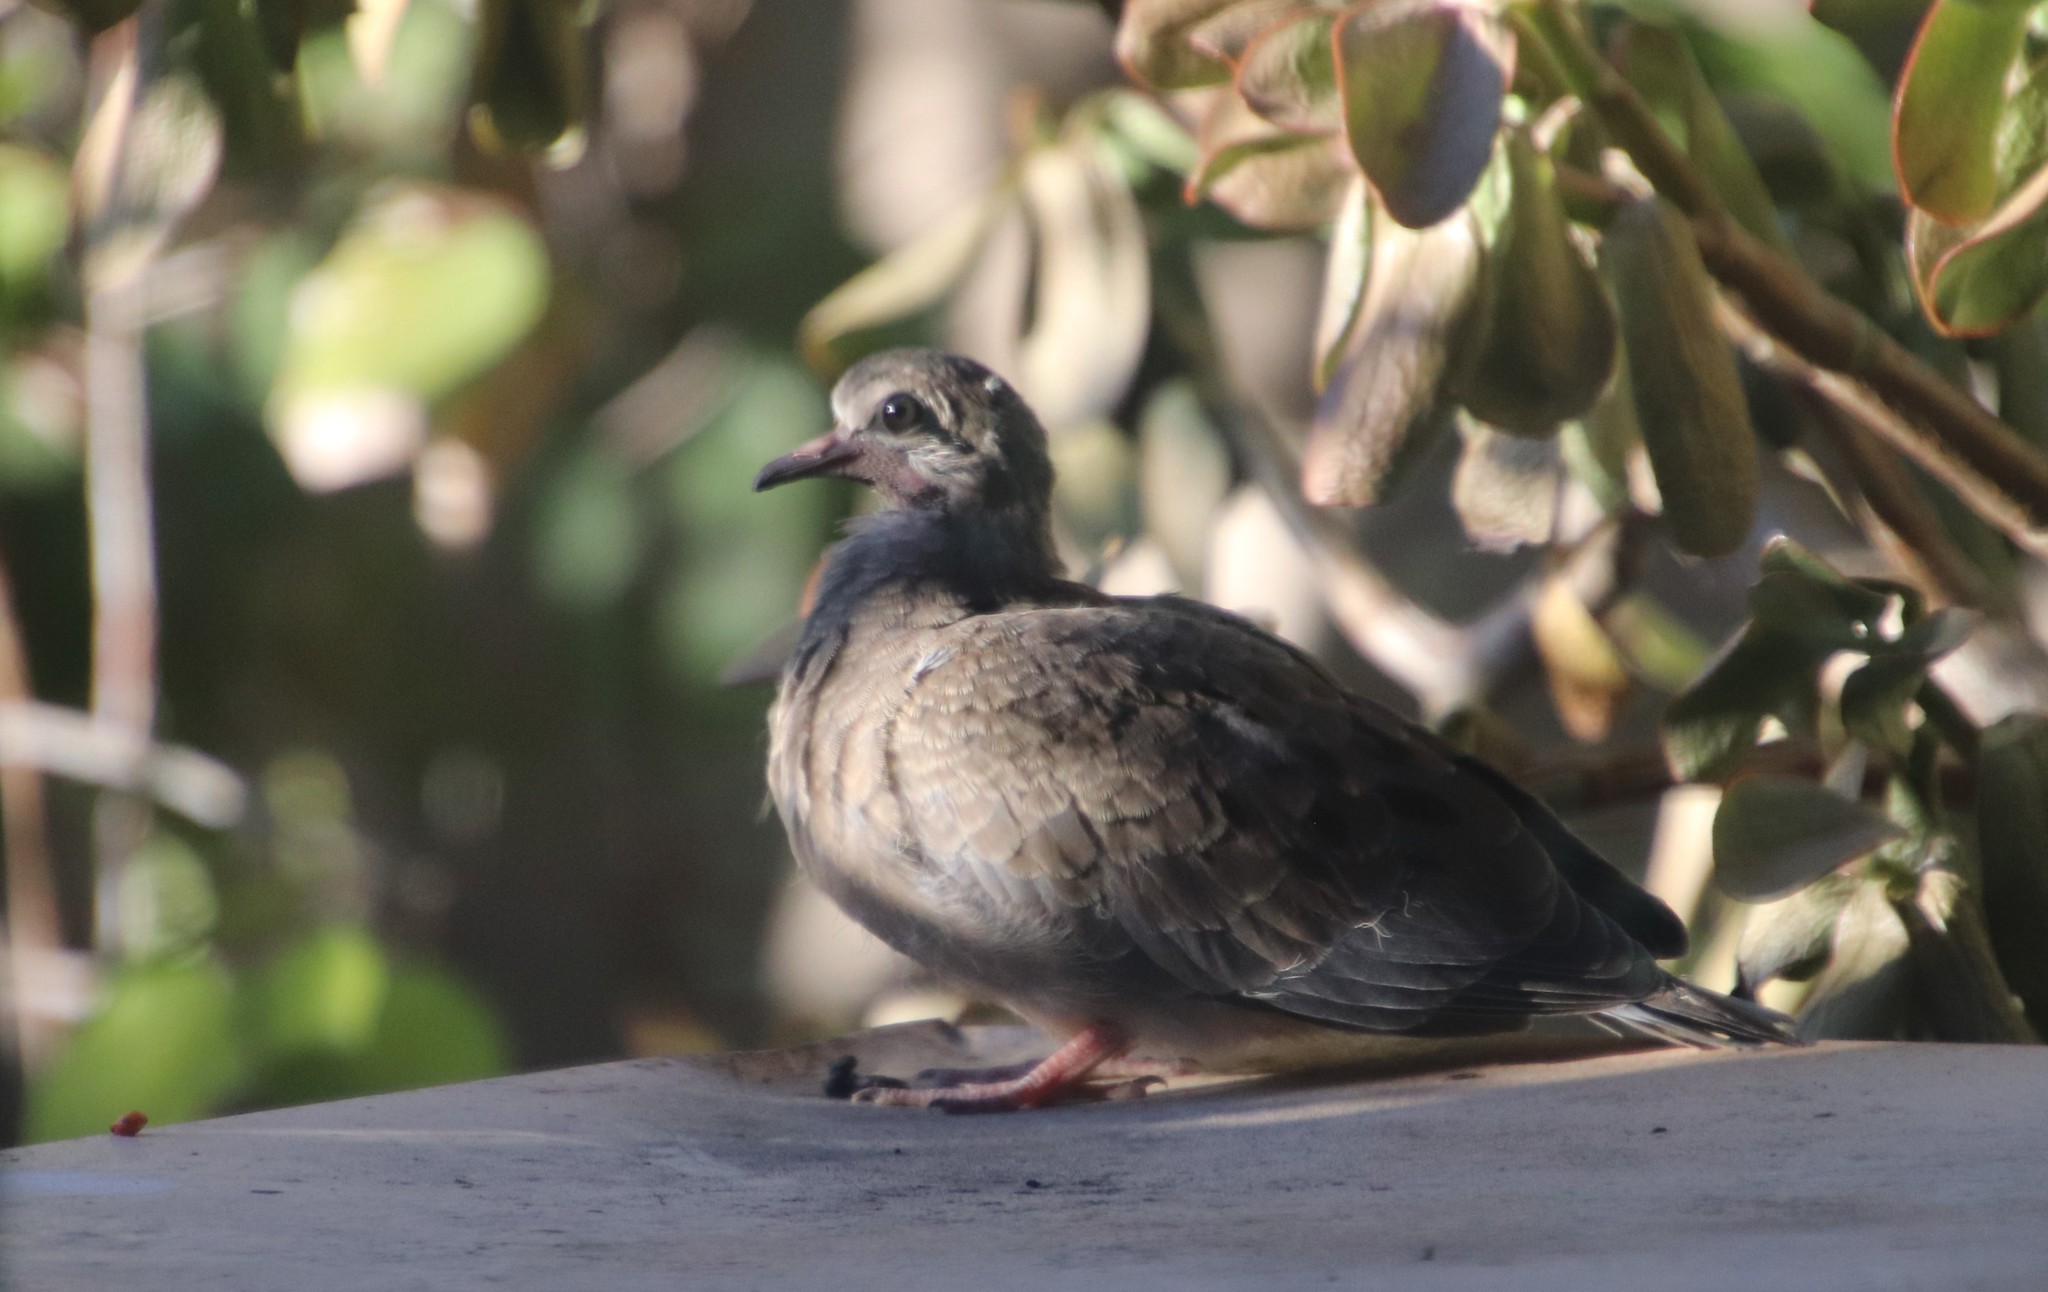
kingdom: Animalia
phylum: Chordata
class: Aves
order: Columbiformes
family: Columbidae
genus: Zenaida
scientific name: Zenaida macroura
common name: Mourning dove
